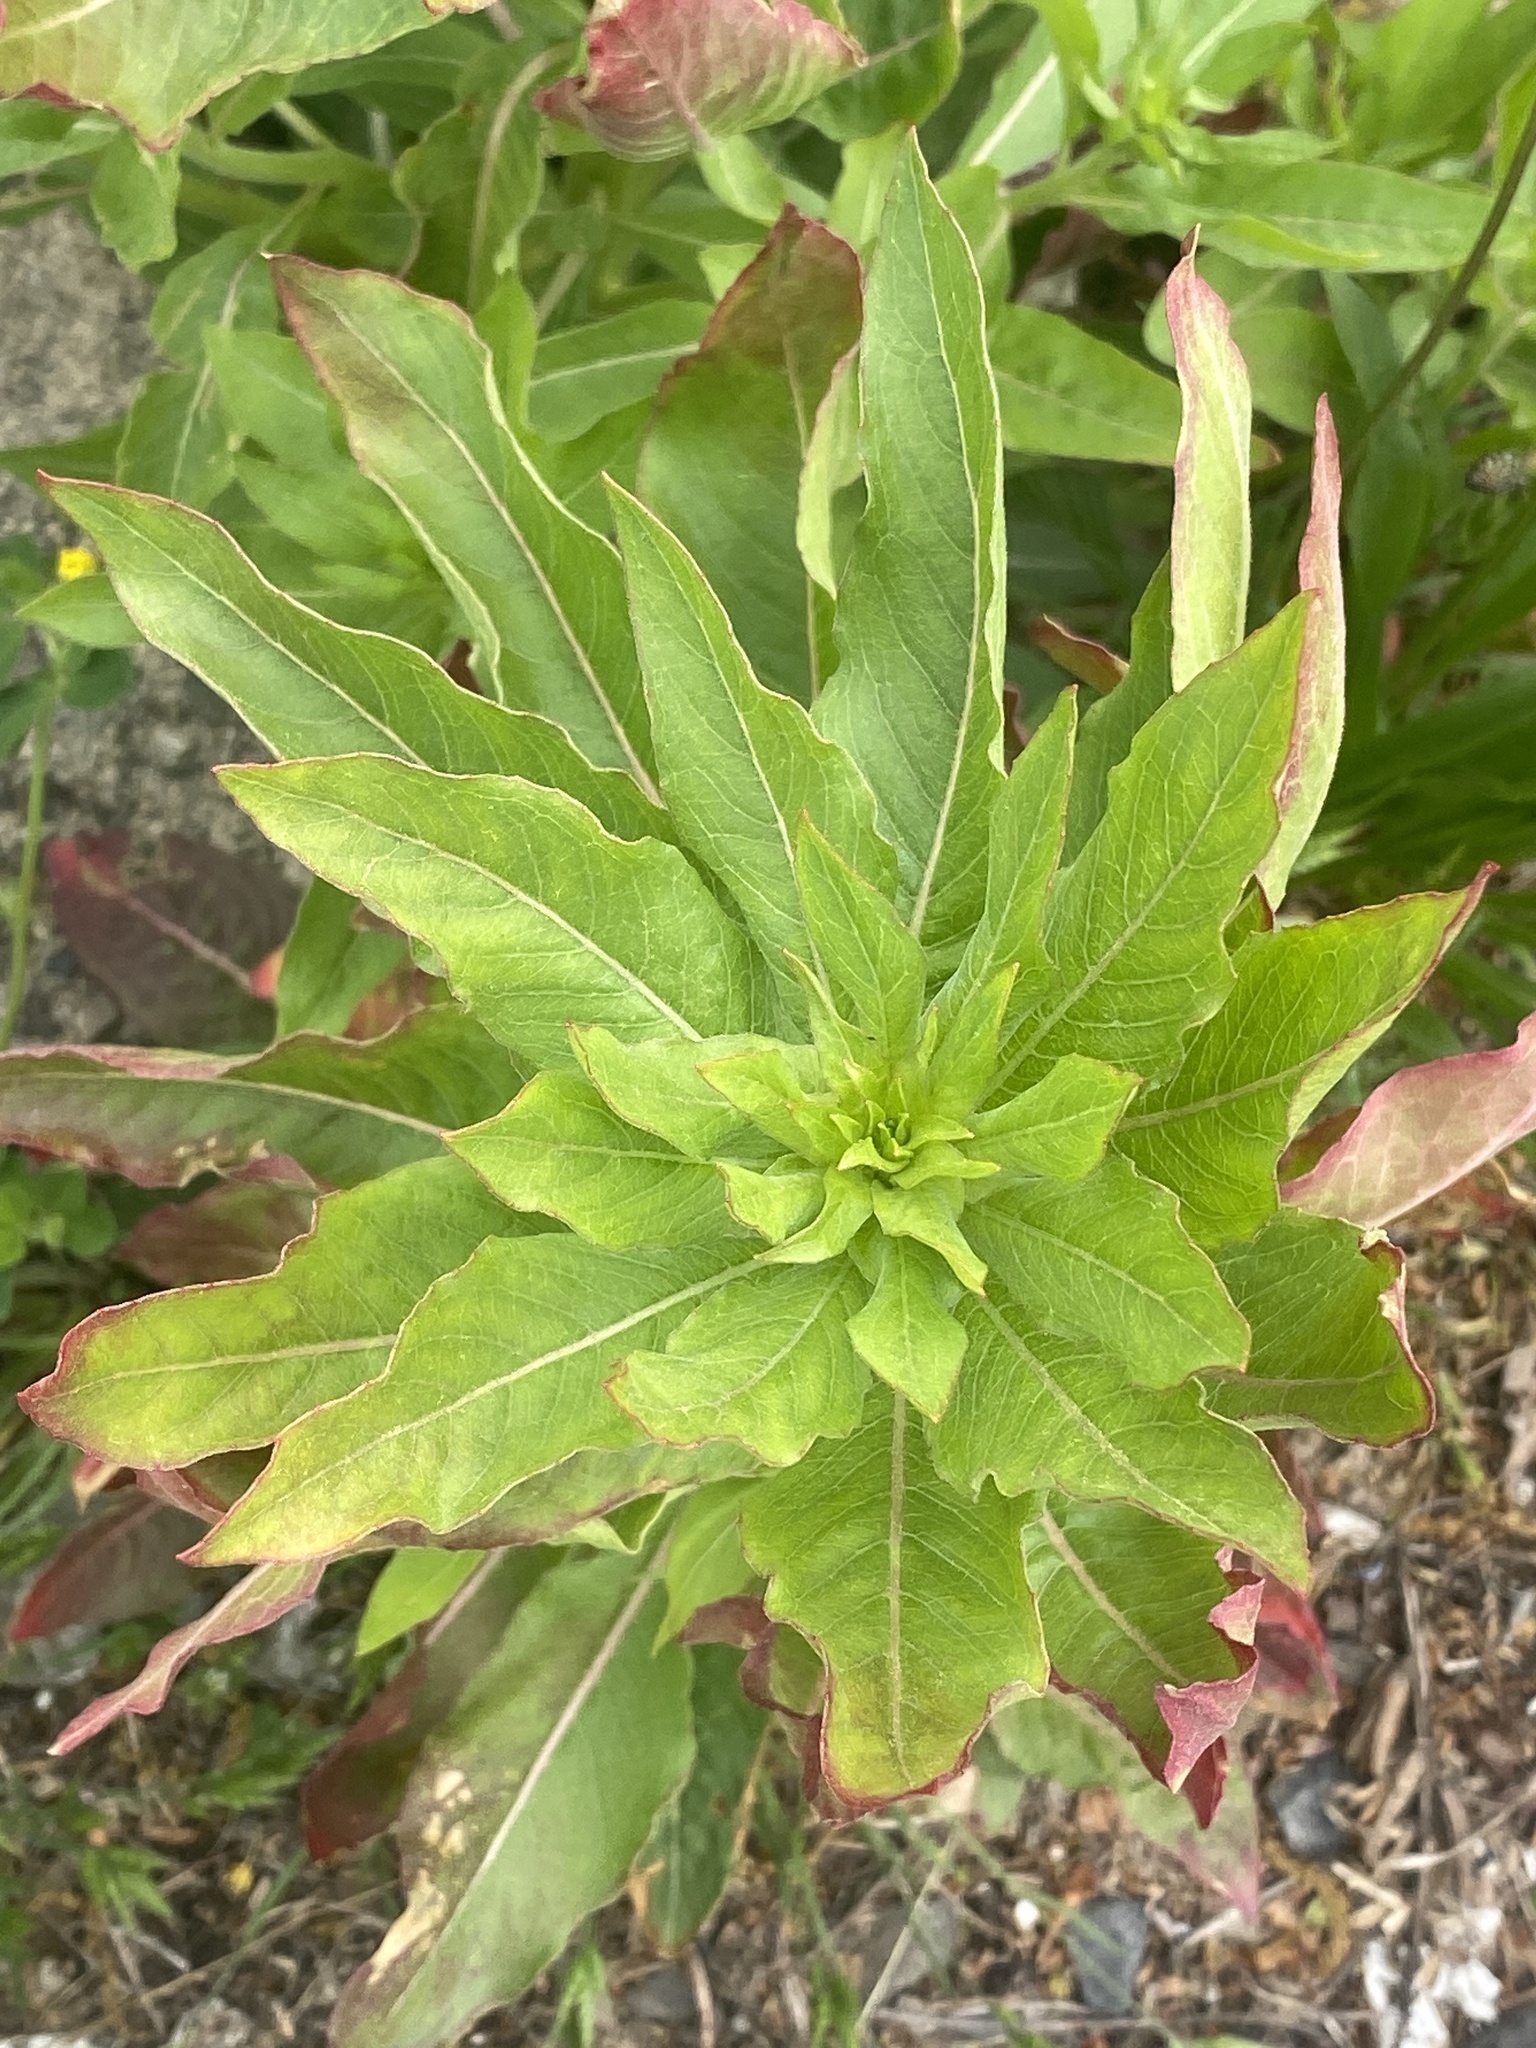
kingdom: Plantae
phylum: Tracheophyta
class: Magnoliopsida
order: Myrtales
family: Onagraceae
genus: Oenothera
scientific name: Oenothera biennis
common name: Common evening-primrose
